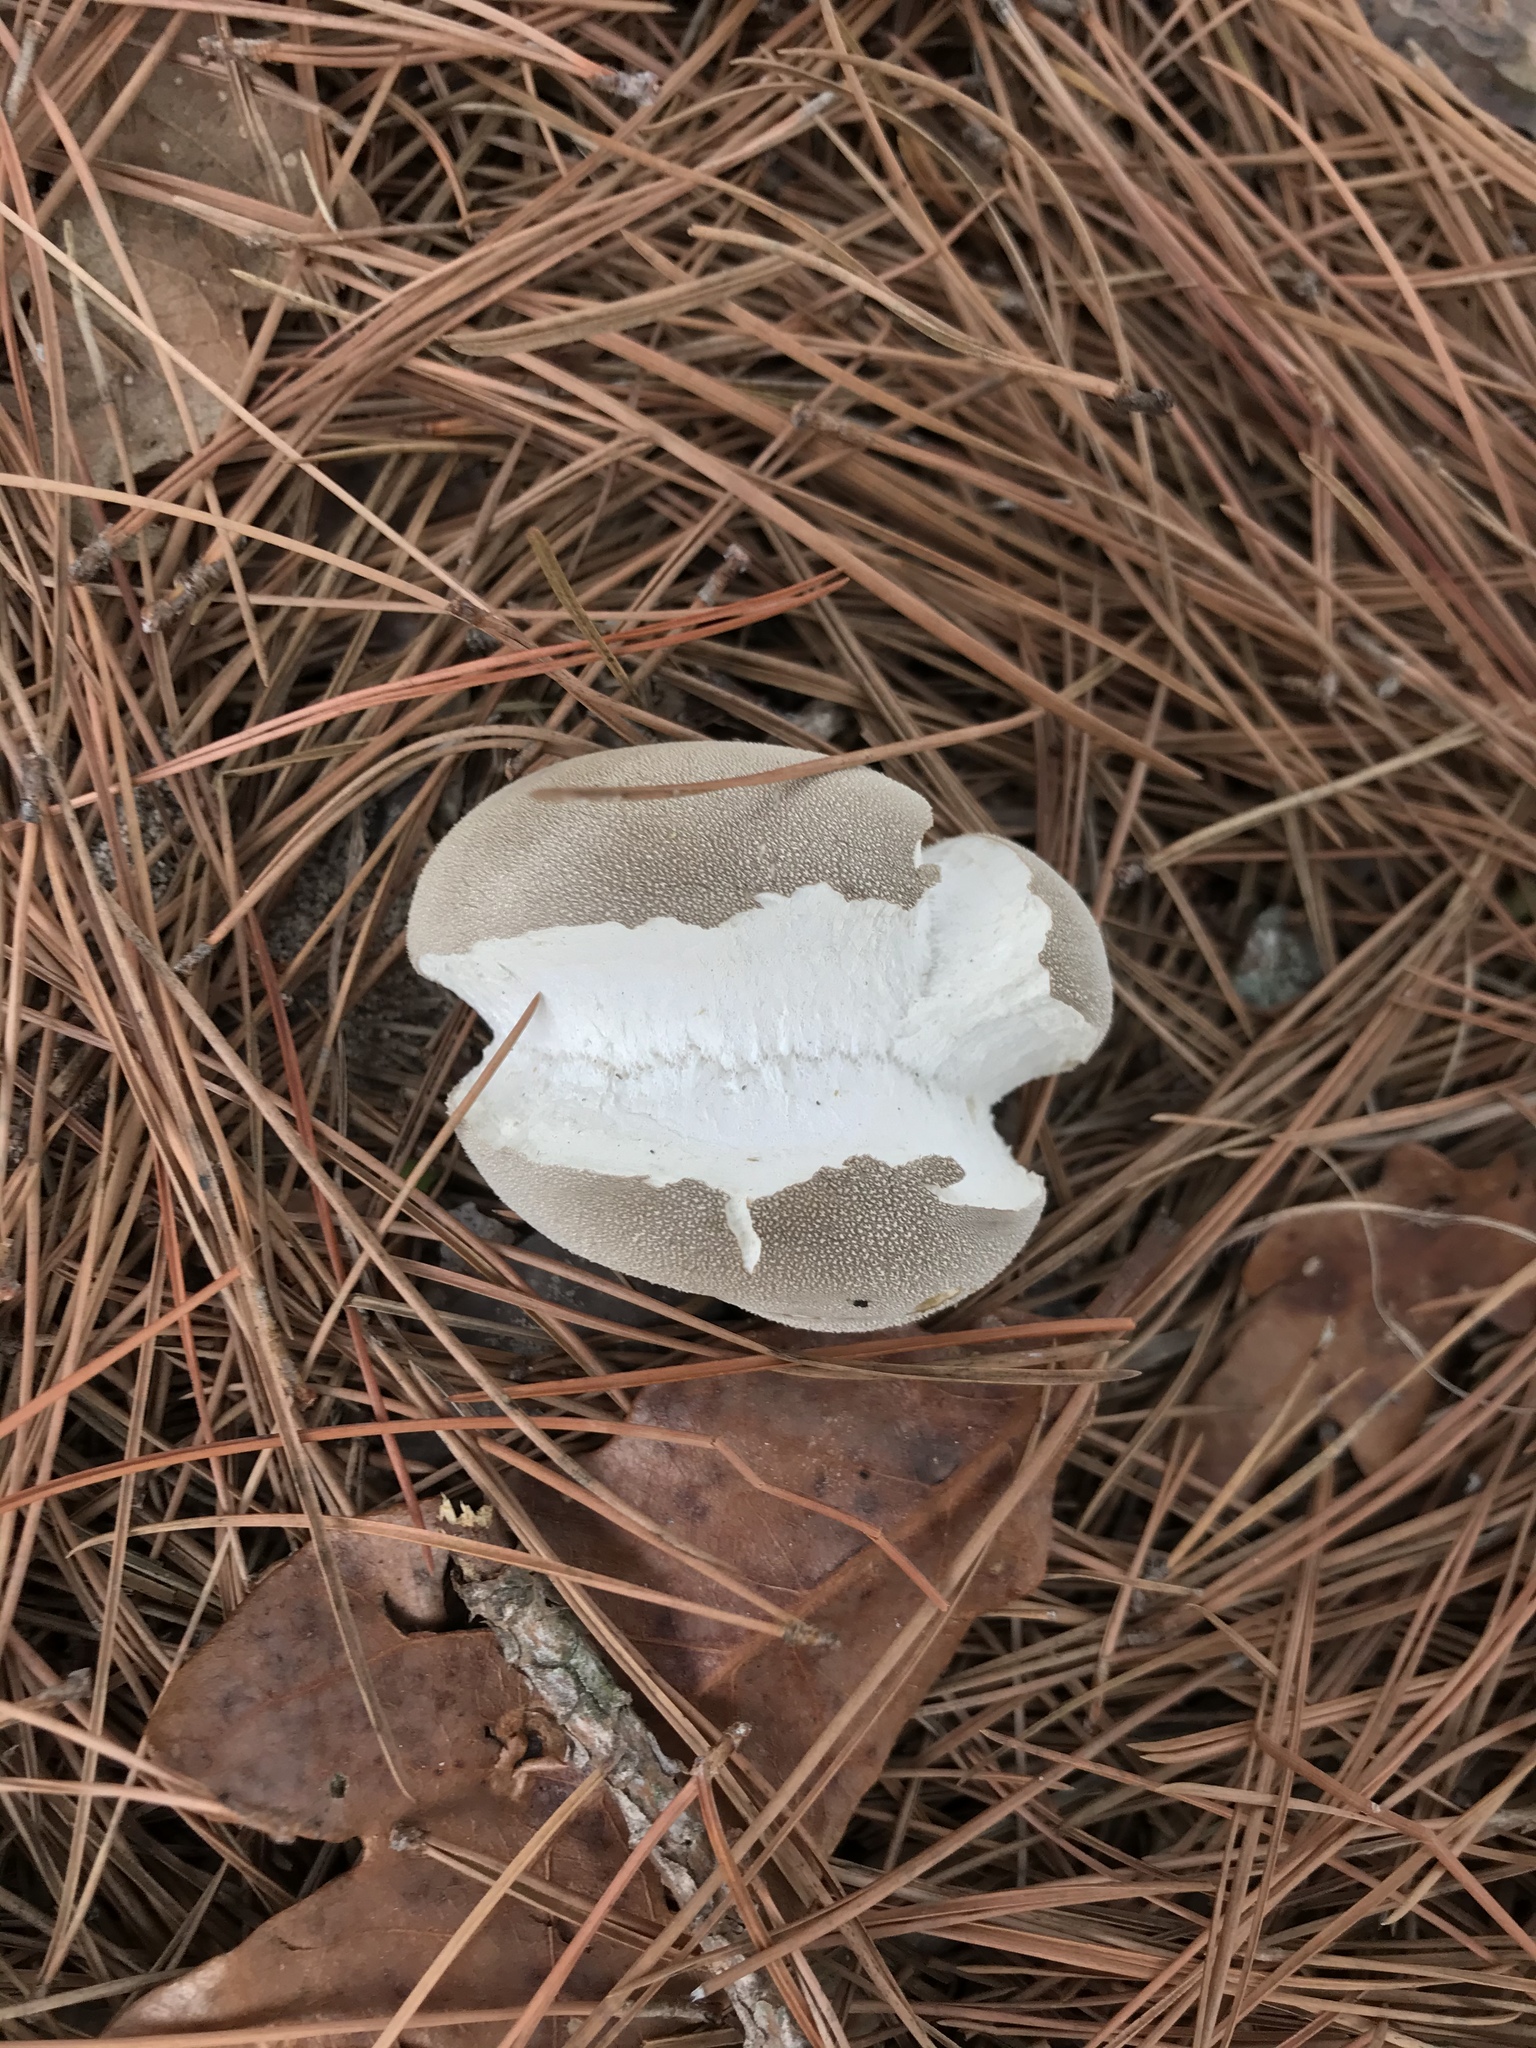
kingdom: Fungi
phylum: Basidiomycota
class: Agaricomycetes
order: Agaricales
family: Lycoperdaceae
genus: Lycoperdon
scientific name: Lycoperdon perlatum
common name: Common puffball
